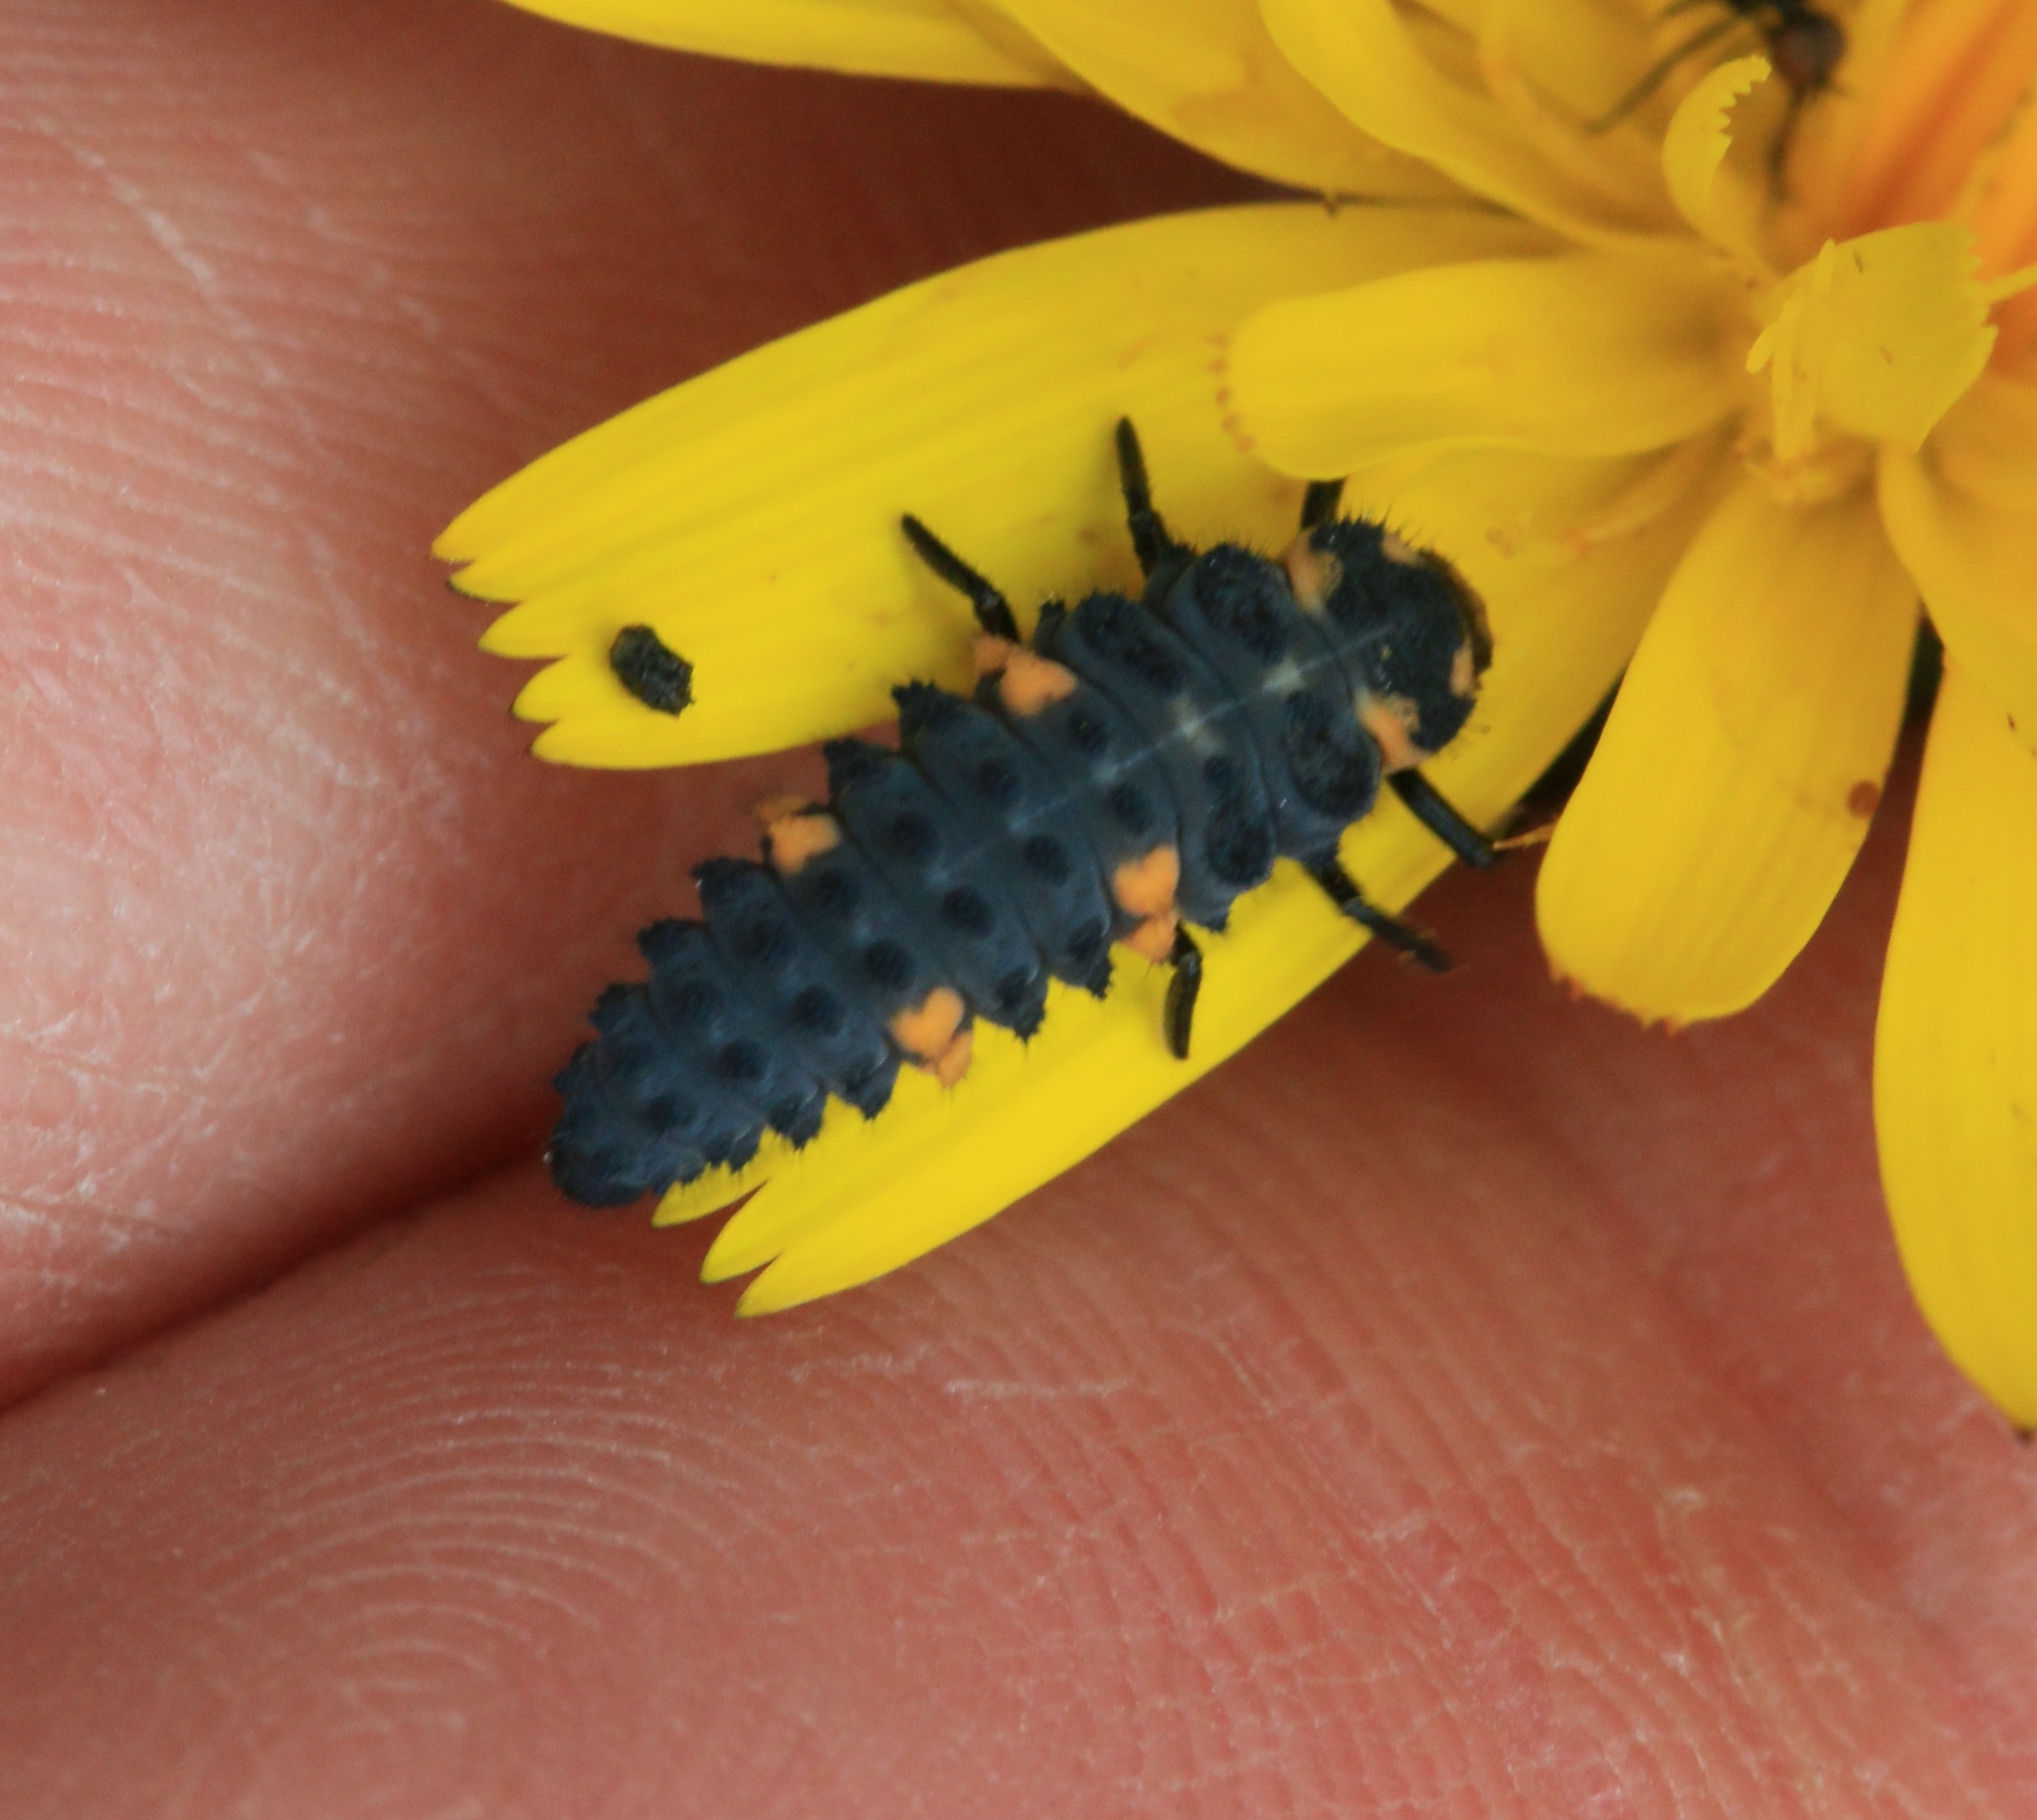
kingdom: Animalia
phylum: Arthropoda
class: Insecta
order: Coleoptera
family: Coccinellidae
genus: Coccinella
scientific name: Coccinella septempunctata
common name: Sevenspotted lady beetle
